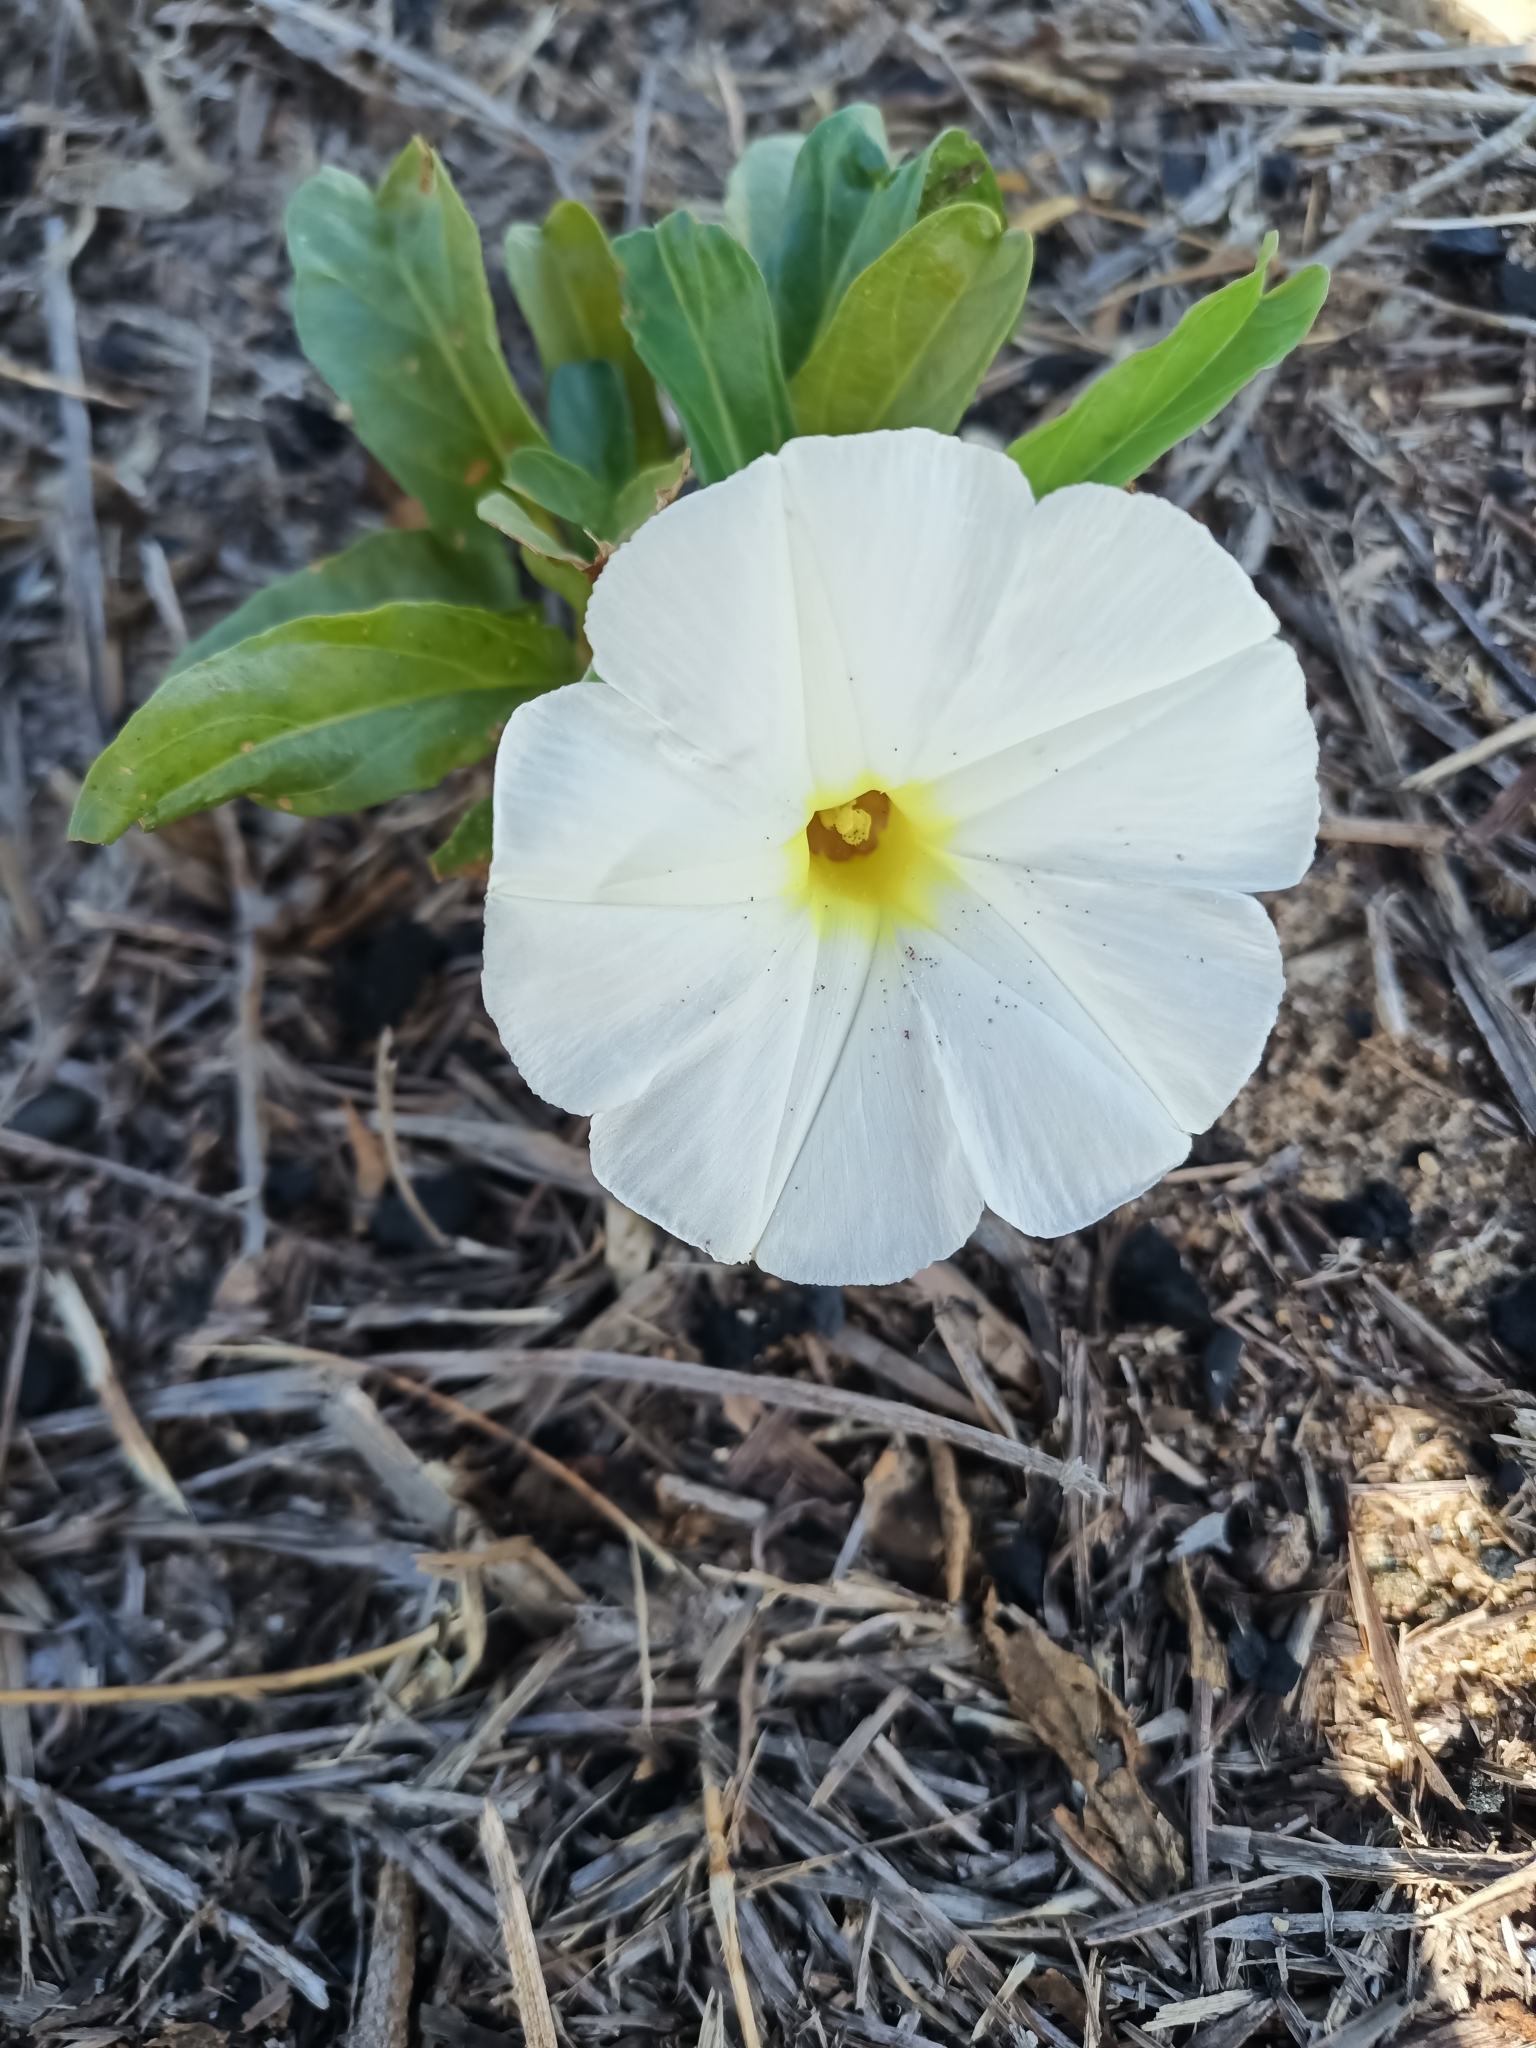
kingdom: Plantae
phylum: Tracheophyta
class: Magnoliopsida
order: Solanales
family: Convolvulaceae
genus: Ipomoea
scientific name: Ipomoea imperati
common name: Fiddle-leaf morning-glory
